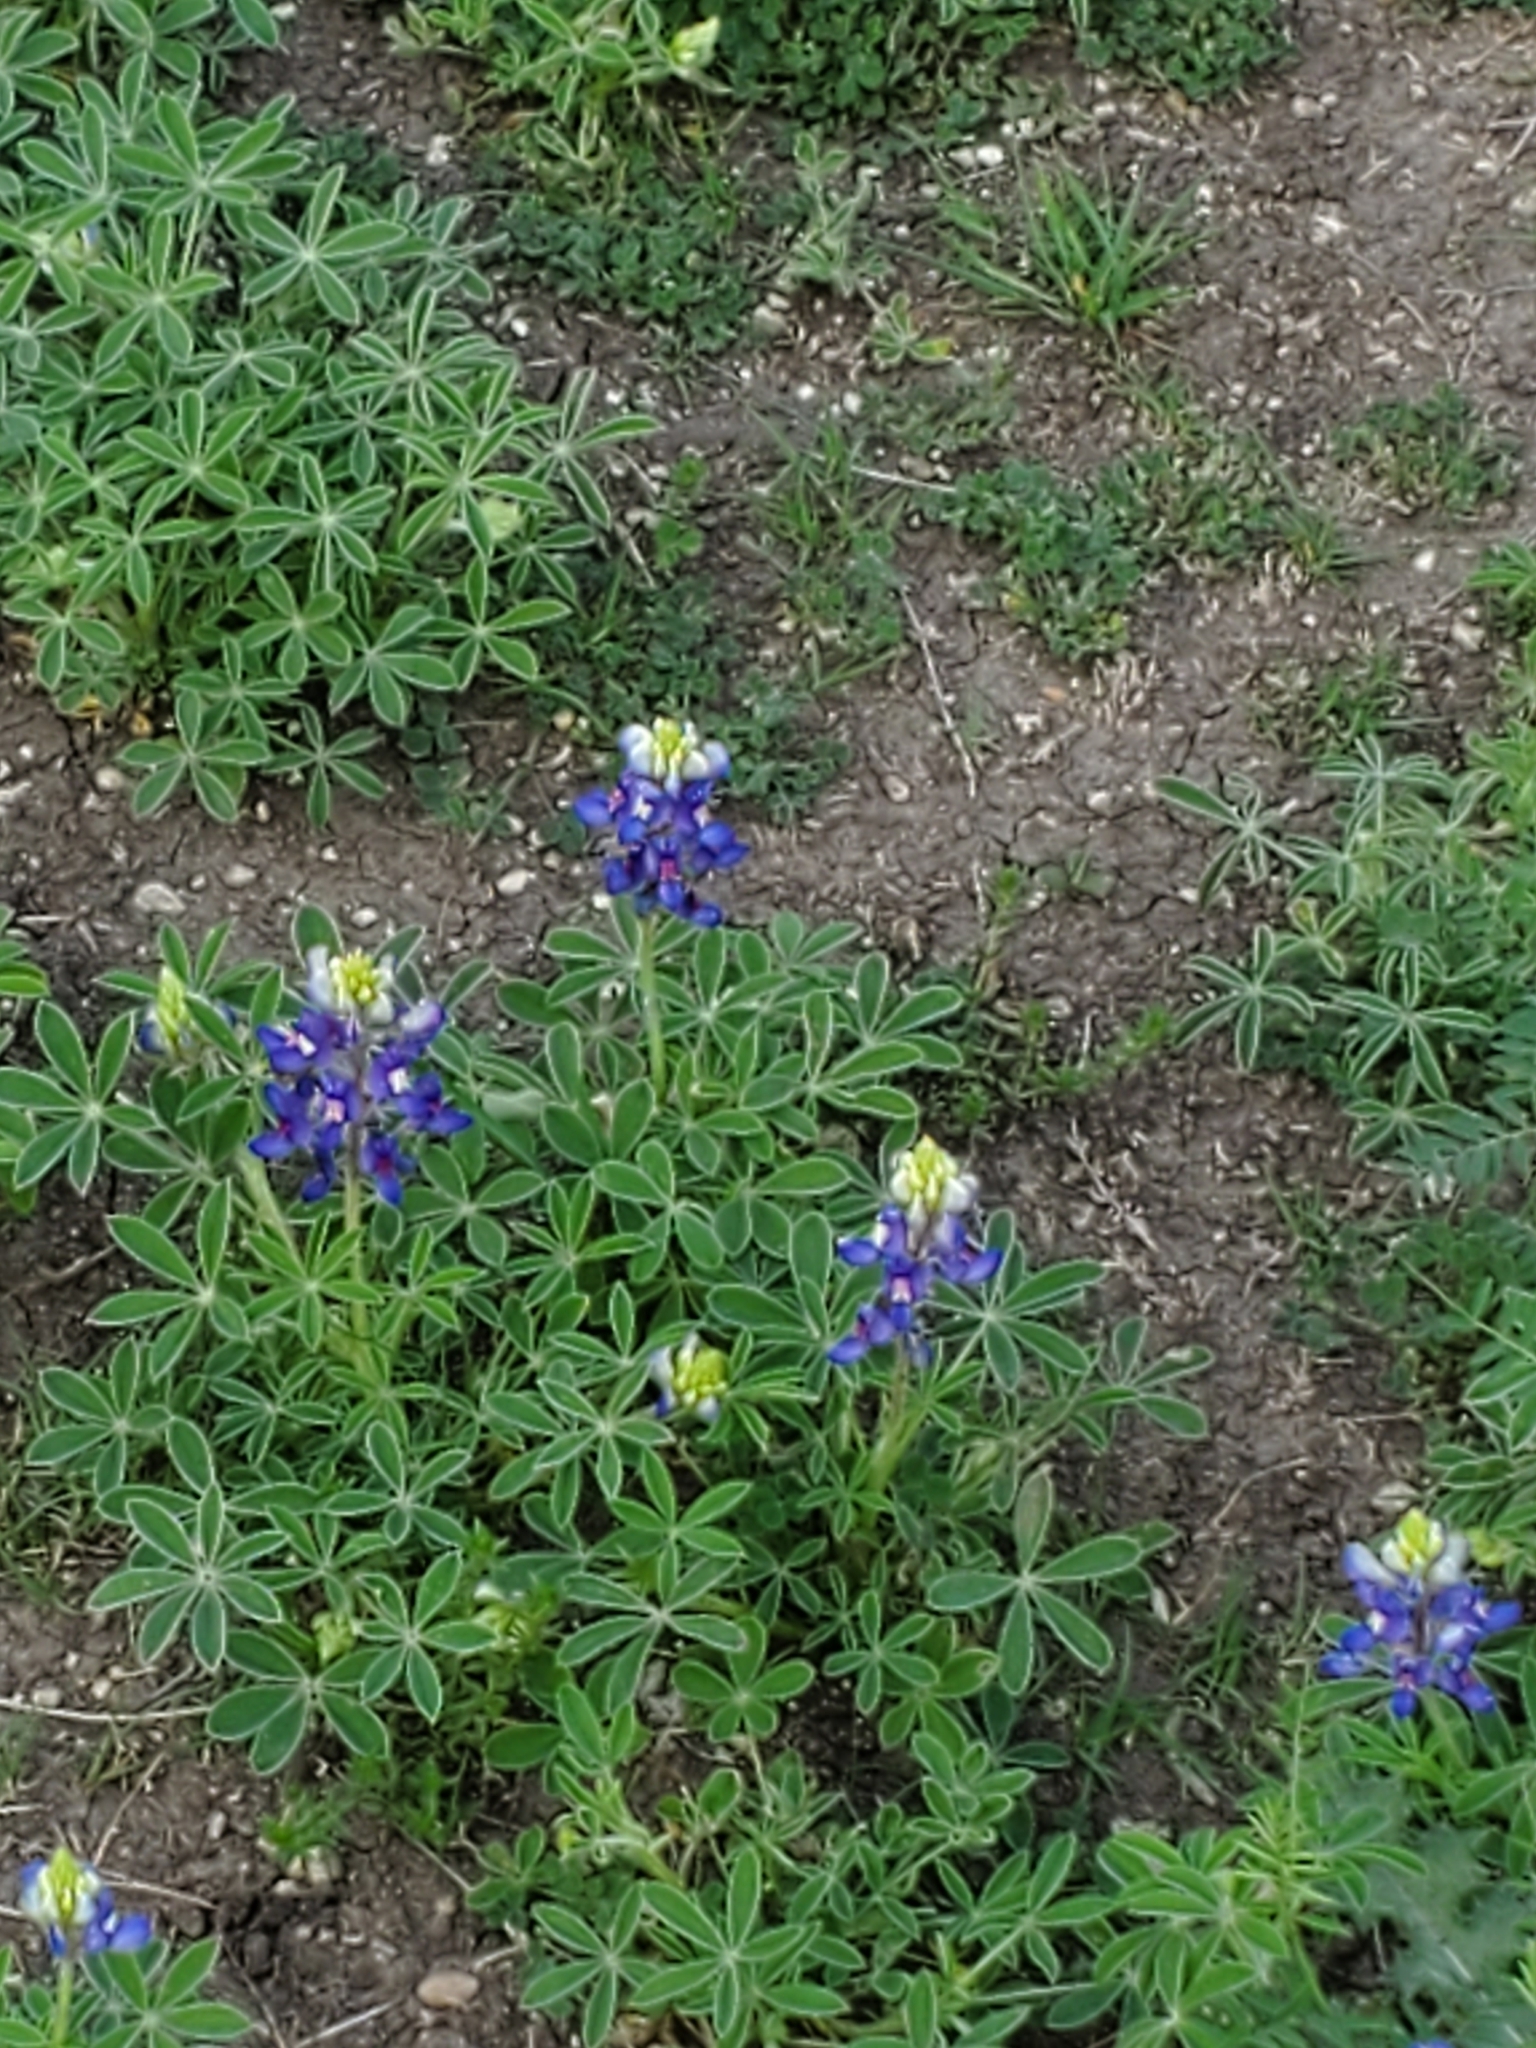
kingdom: Plantae
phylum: Tracheophyta
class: Magnoliopsida
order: Fabales
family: Fabaceae
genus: Lupinus
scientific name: Lupinus texensis
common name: Texas bluebonnet
